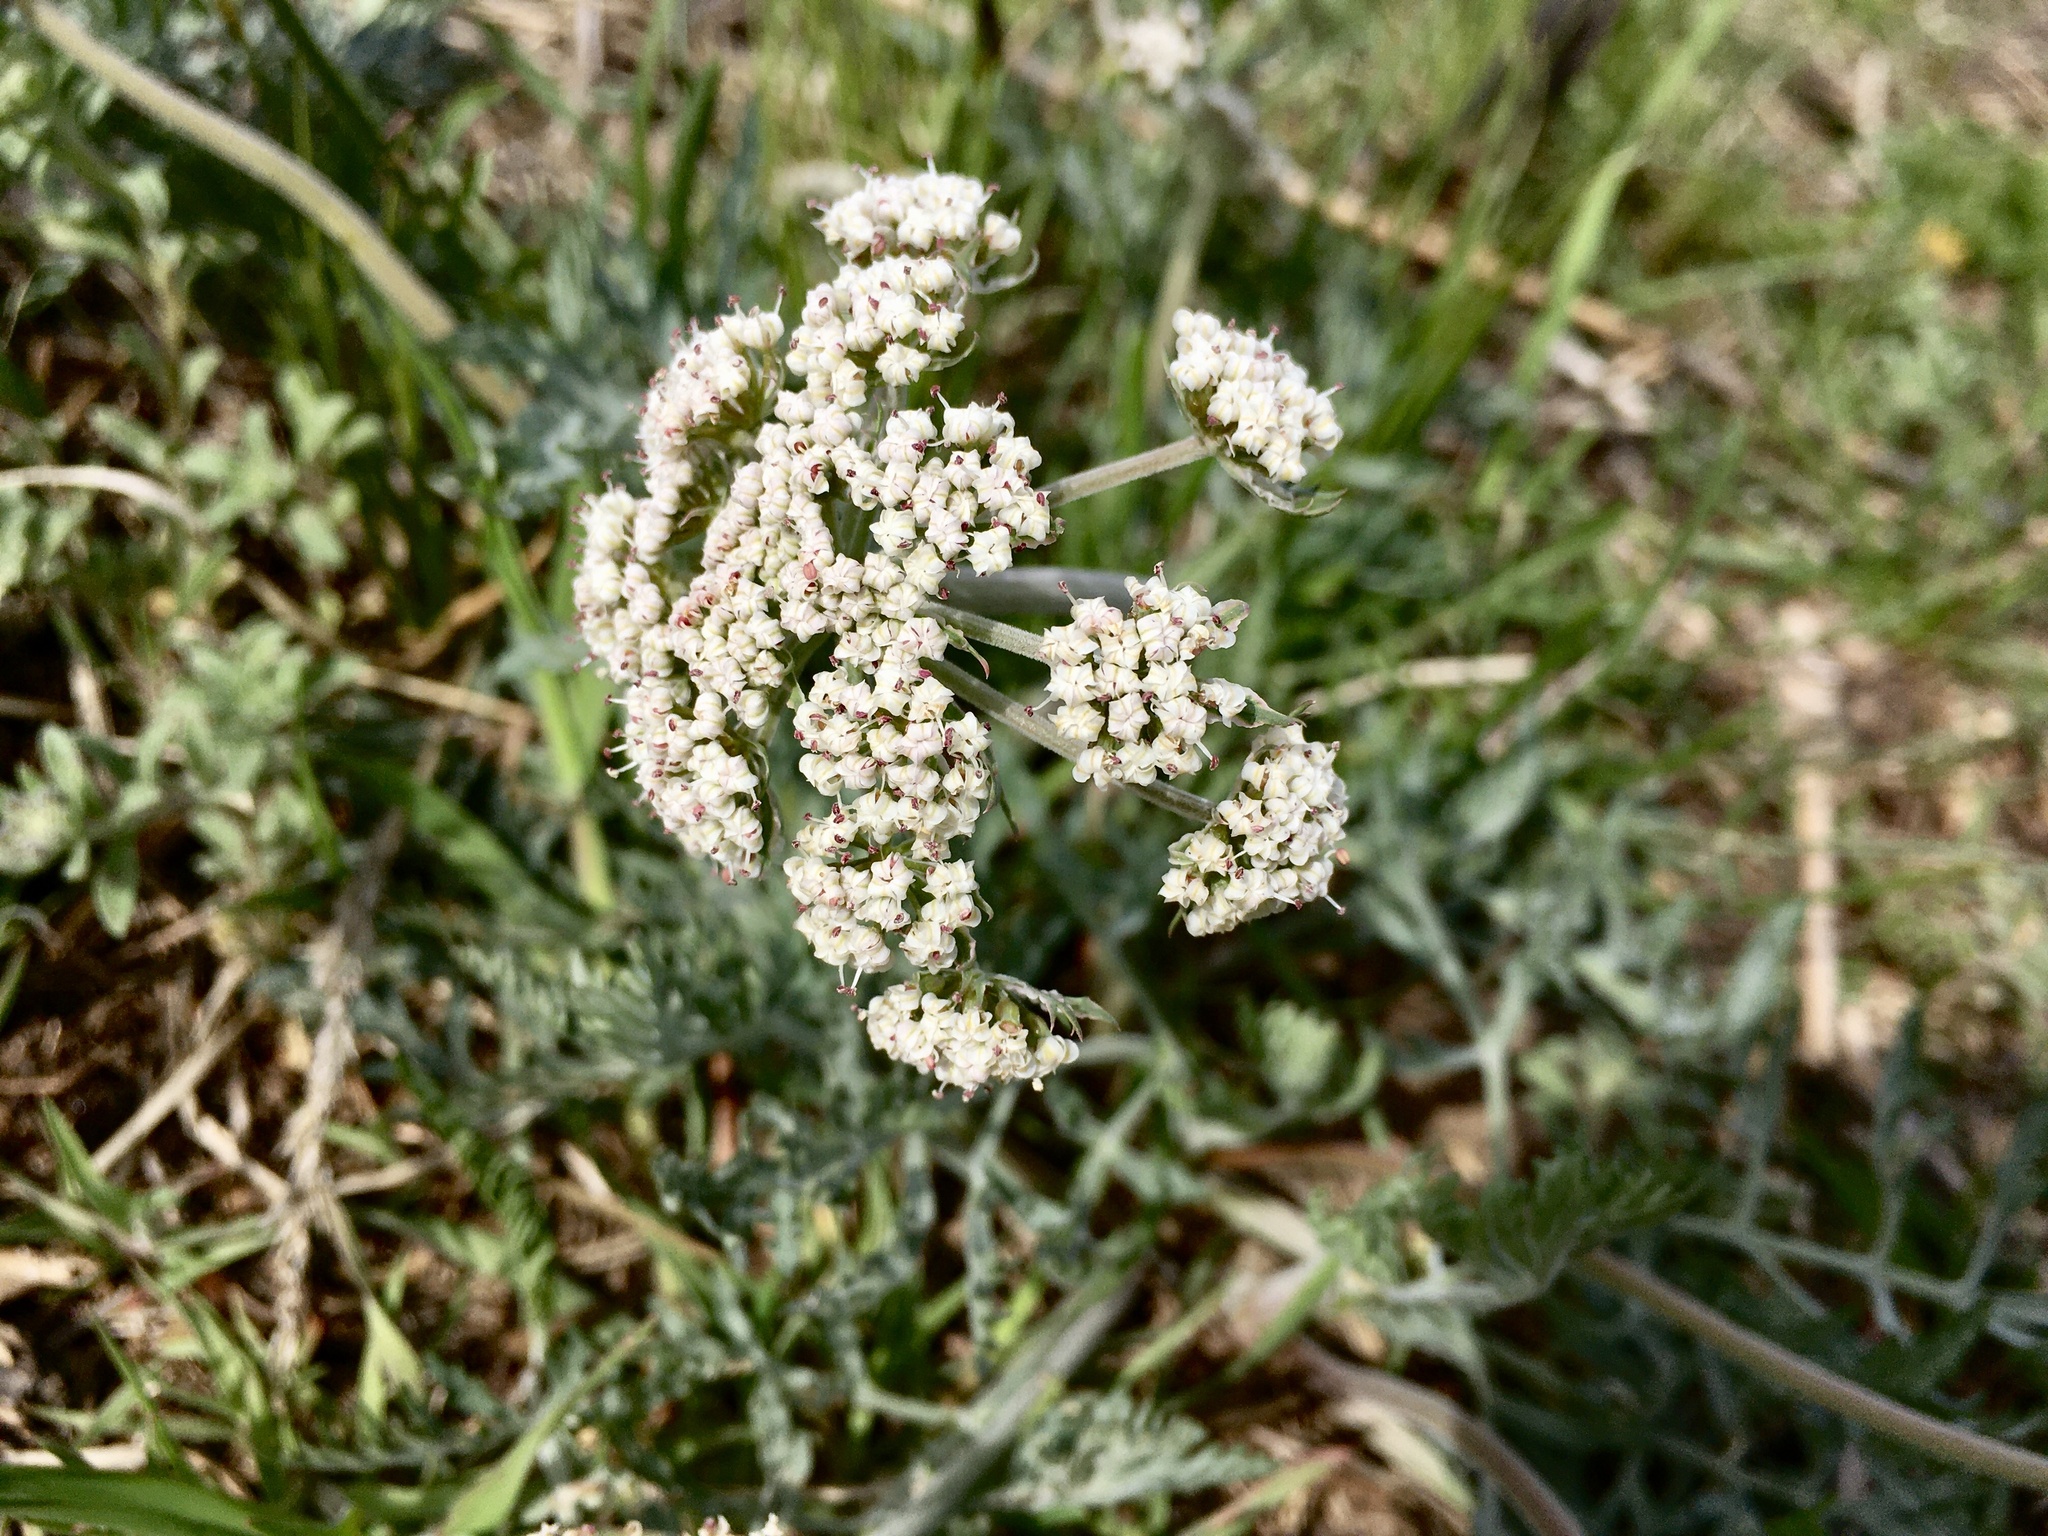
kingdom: Plantae
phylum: Tracheophyta
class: Magnoliopsida
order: Apiales
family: Apiaceae
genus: Lomatium
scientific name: Lomatium orientale
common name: Eastern cous
